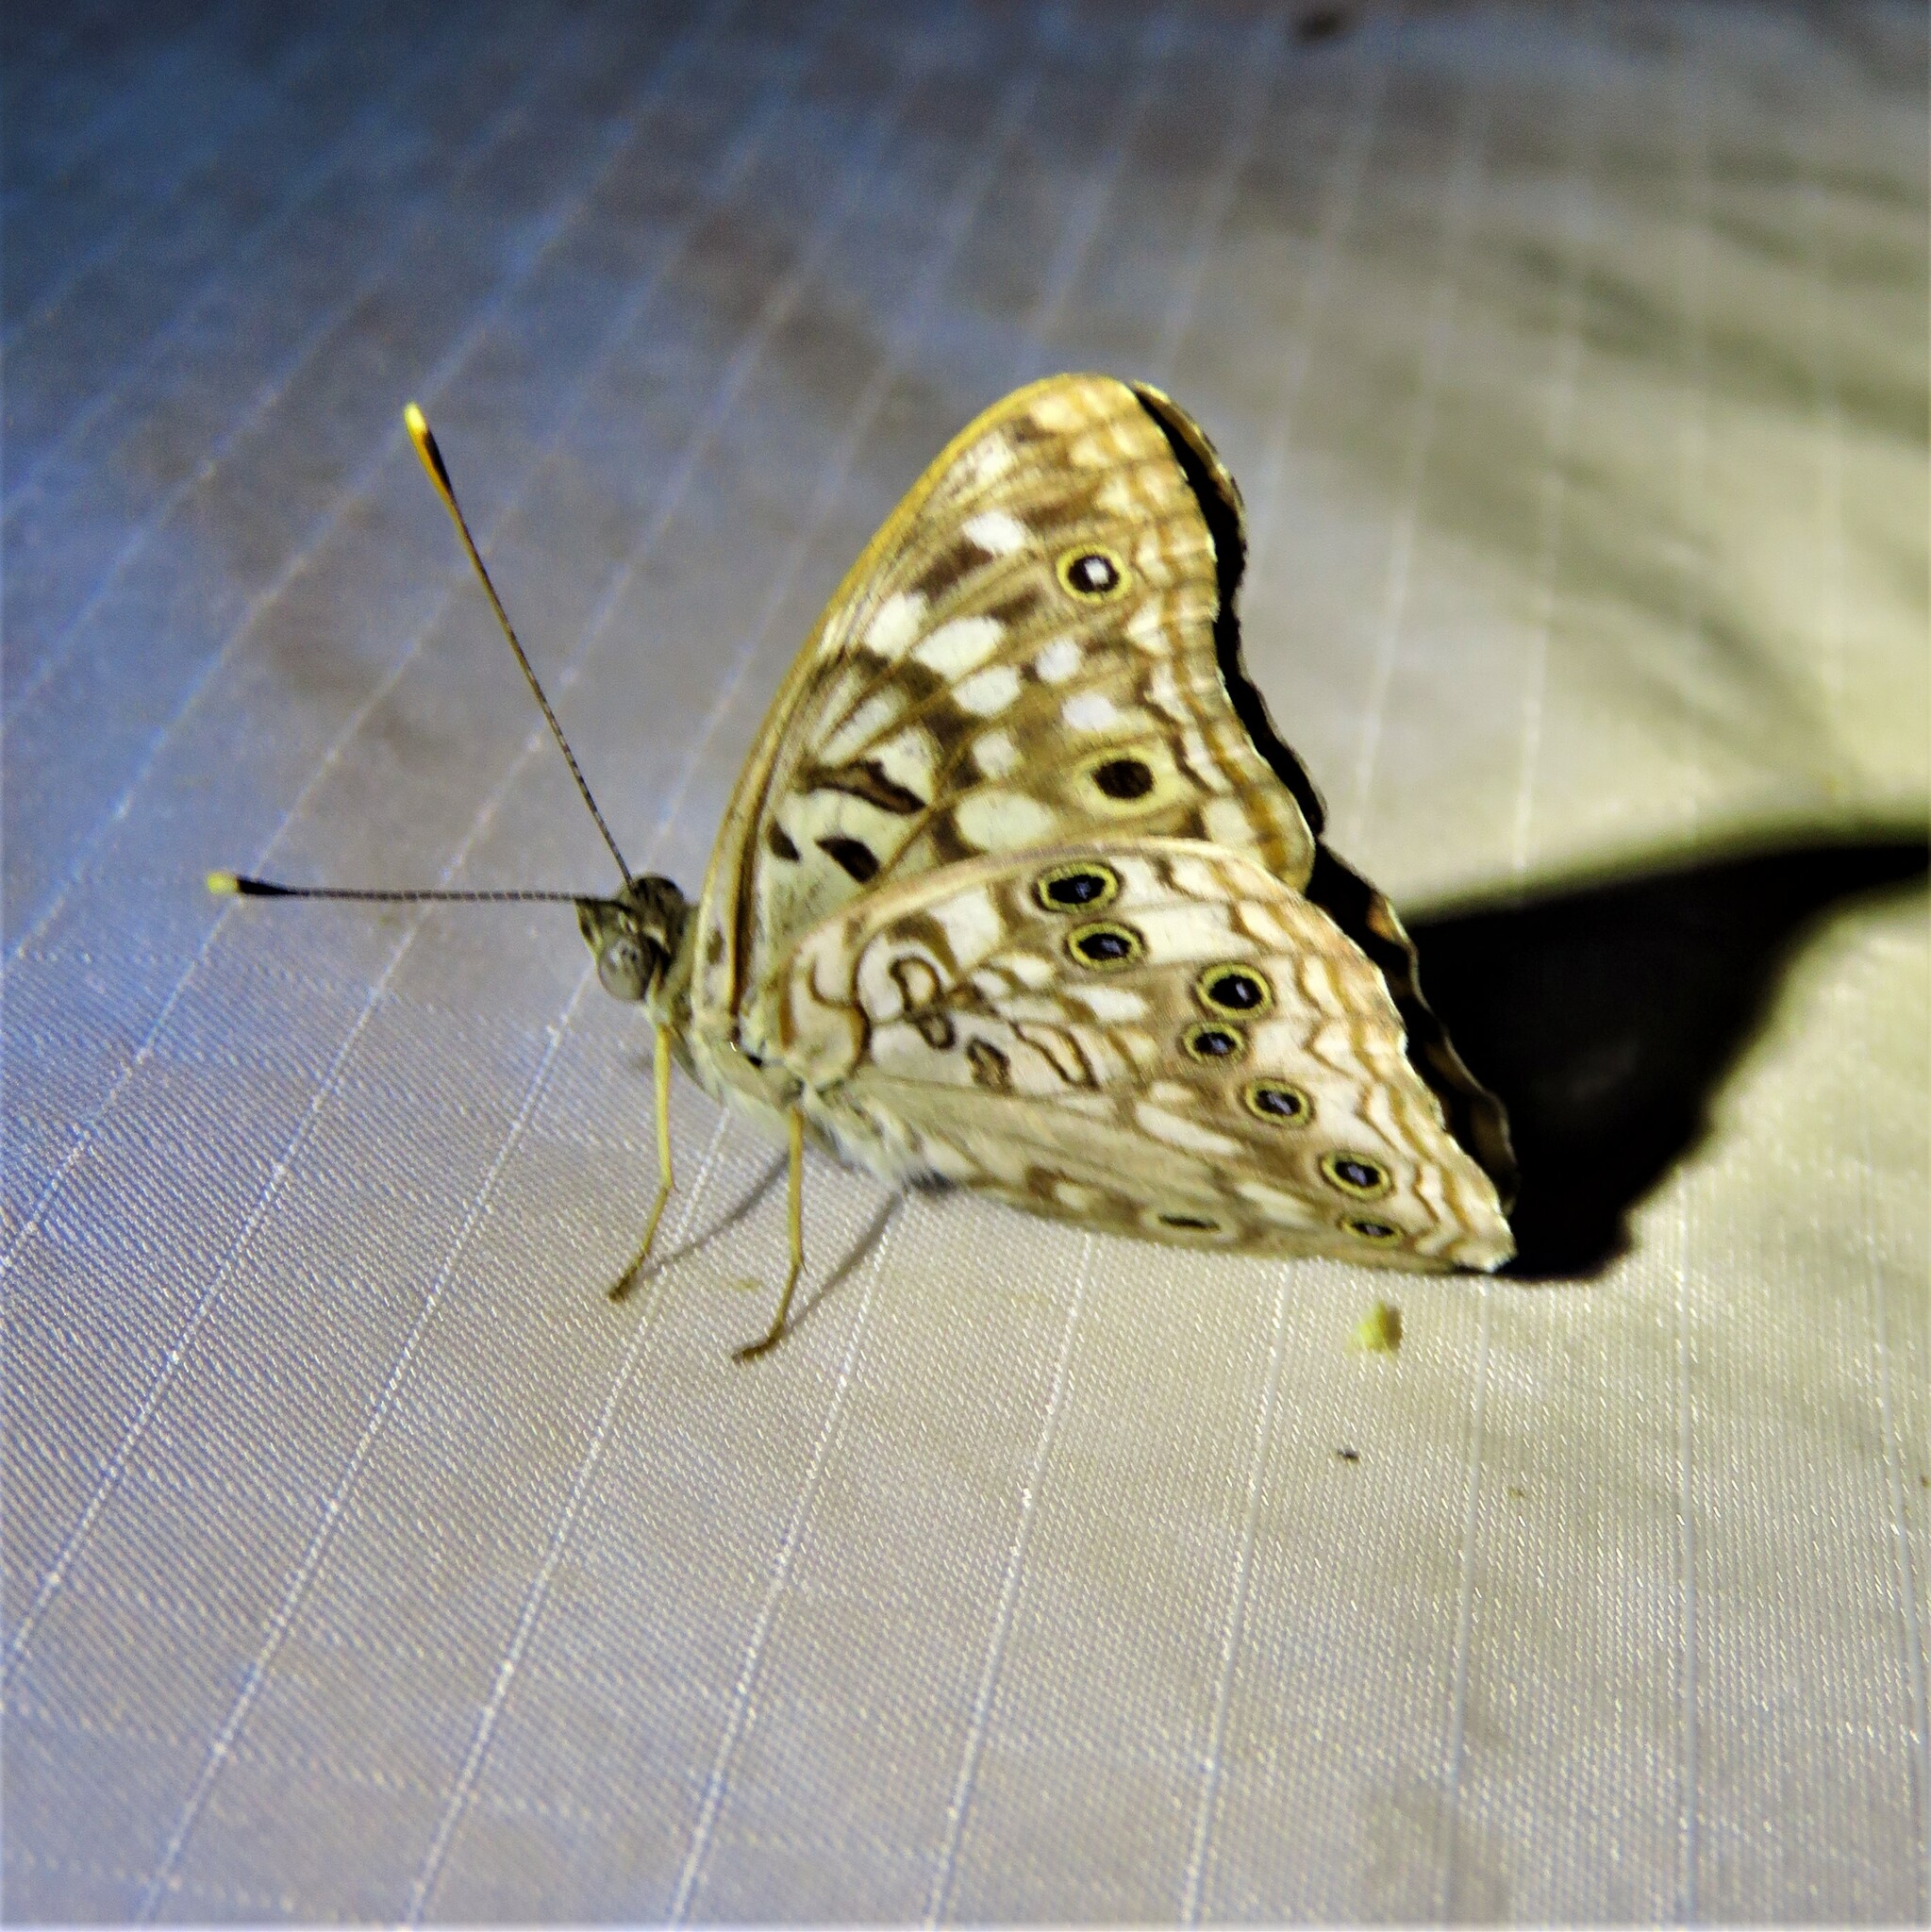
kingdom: Animalia
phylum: Arthropoda
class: Insecta
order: Lepidoptera
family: Nymphalidae
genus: Asterocampa
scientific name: Asterocampa celtis
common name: Hackberry emperor
